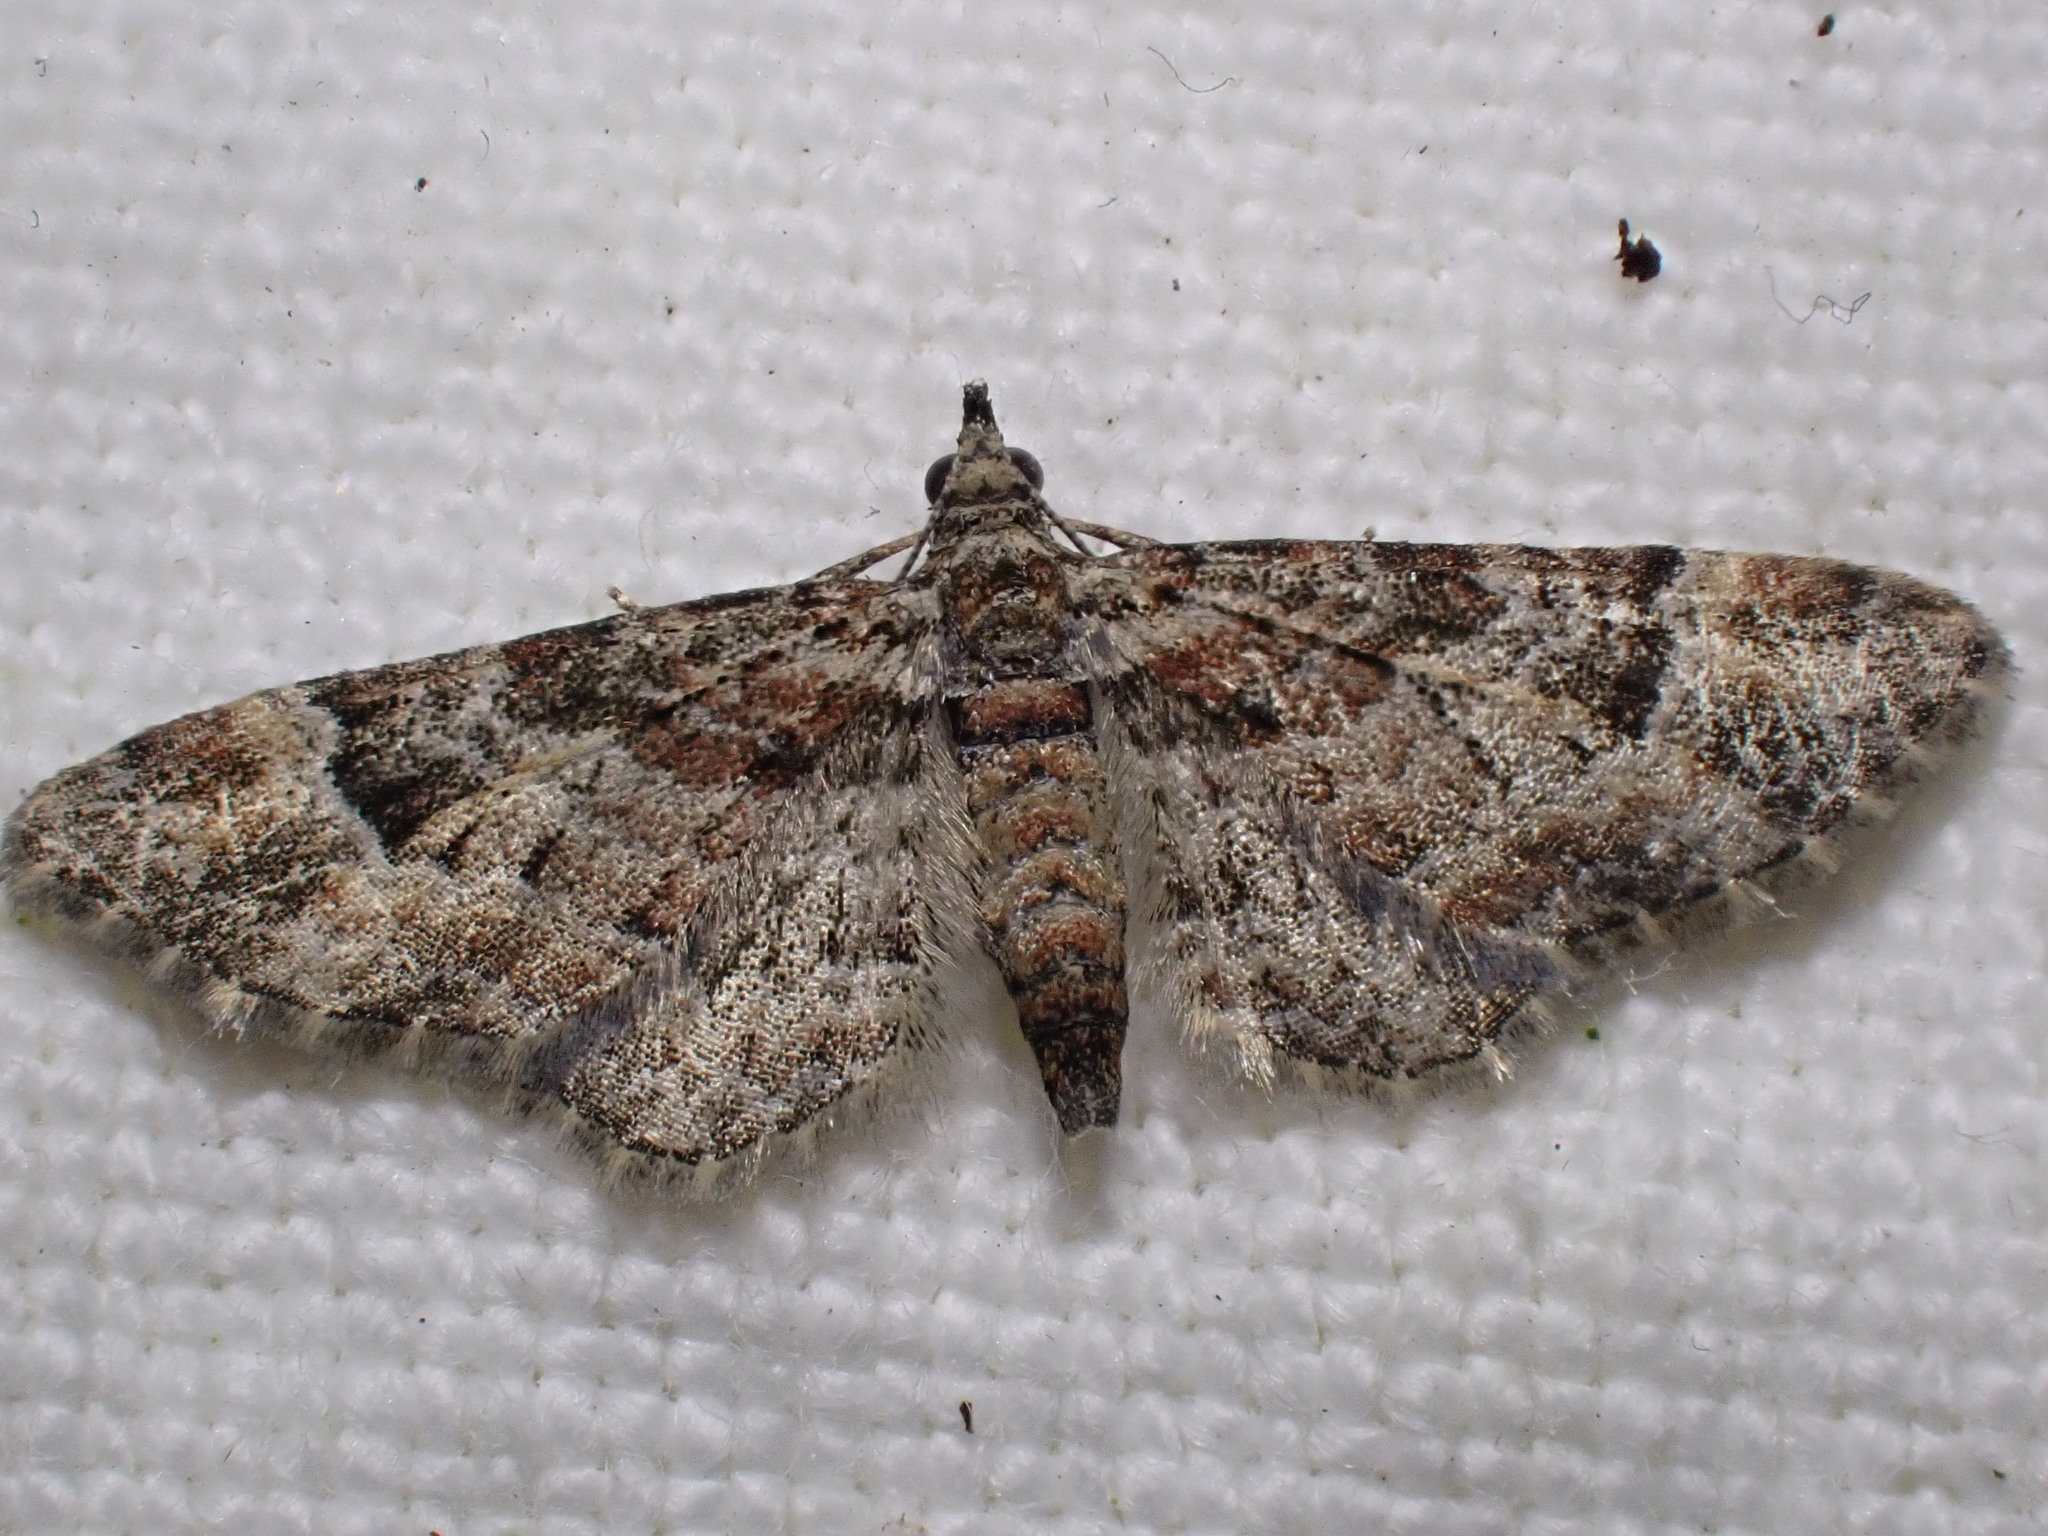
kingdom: Animalia
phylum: Arthropoda
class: Insecta
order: Lepidoptera
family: Geometridae
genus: Gymnoscelis
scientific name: Gymnoscelis rufifasciata
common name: Double-striped pug
